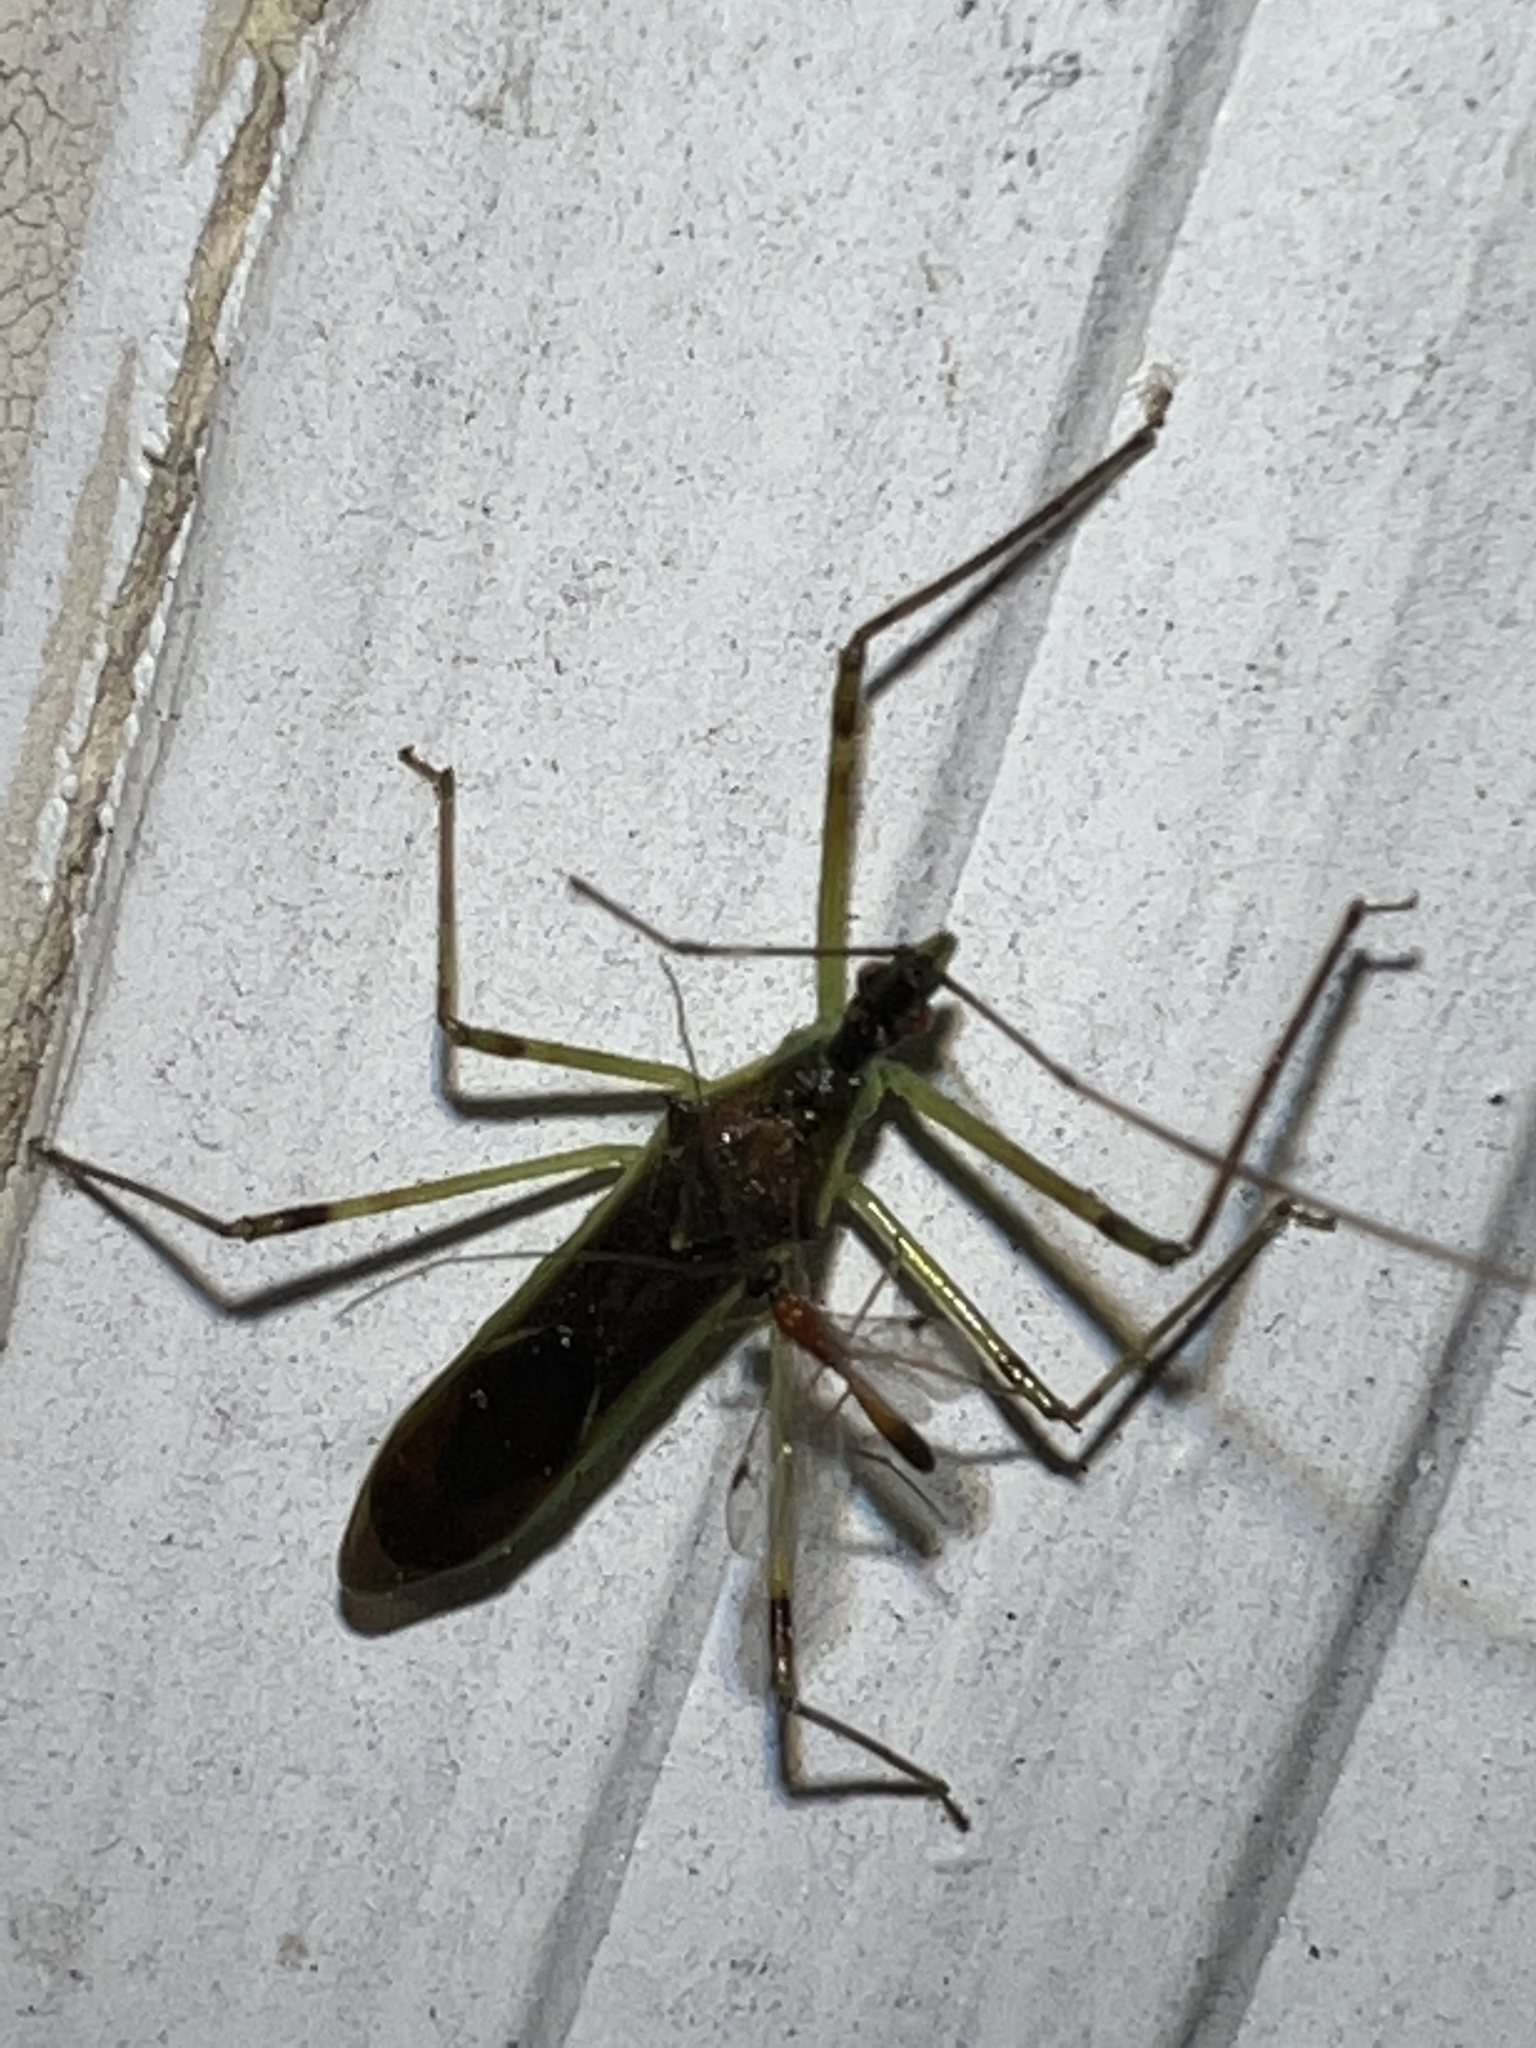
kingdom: Animalia
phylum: Arthropoda
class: Insecta
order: Hemiptera
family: Reduviidae
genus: Zelus
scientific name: Zelus luridus
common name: Pale green assassin bug
